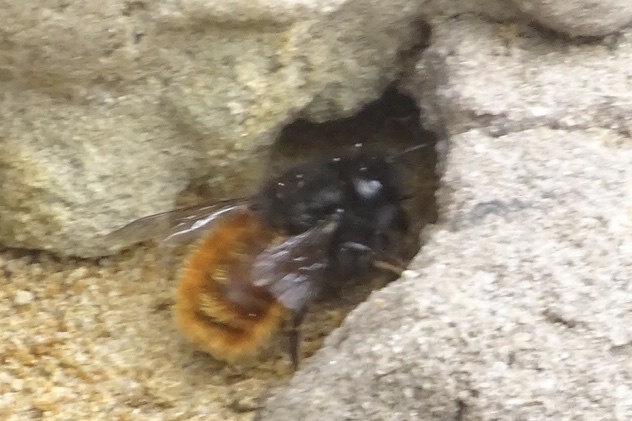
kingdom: Animalia
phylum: Arthropoda
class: Insecta
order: Hymenoptera
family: Megachilidae
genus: Osmia
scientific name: Osmia cornuta
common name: Mason bee
